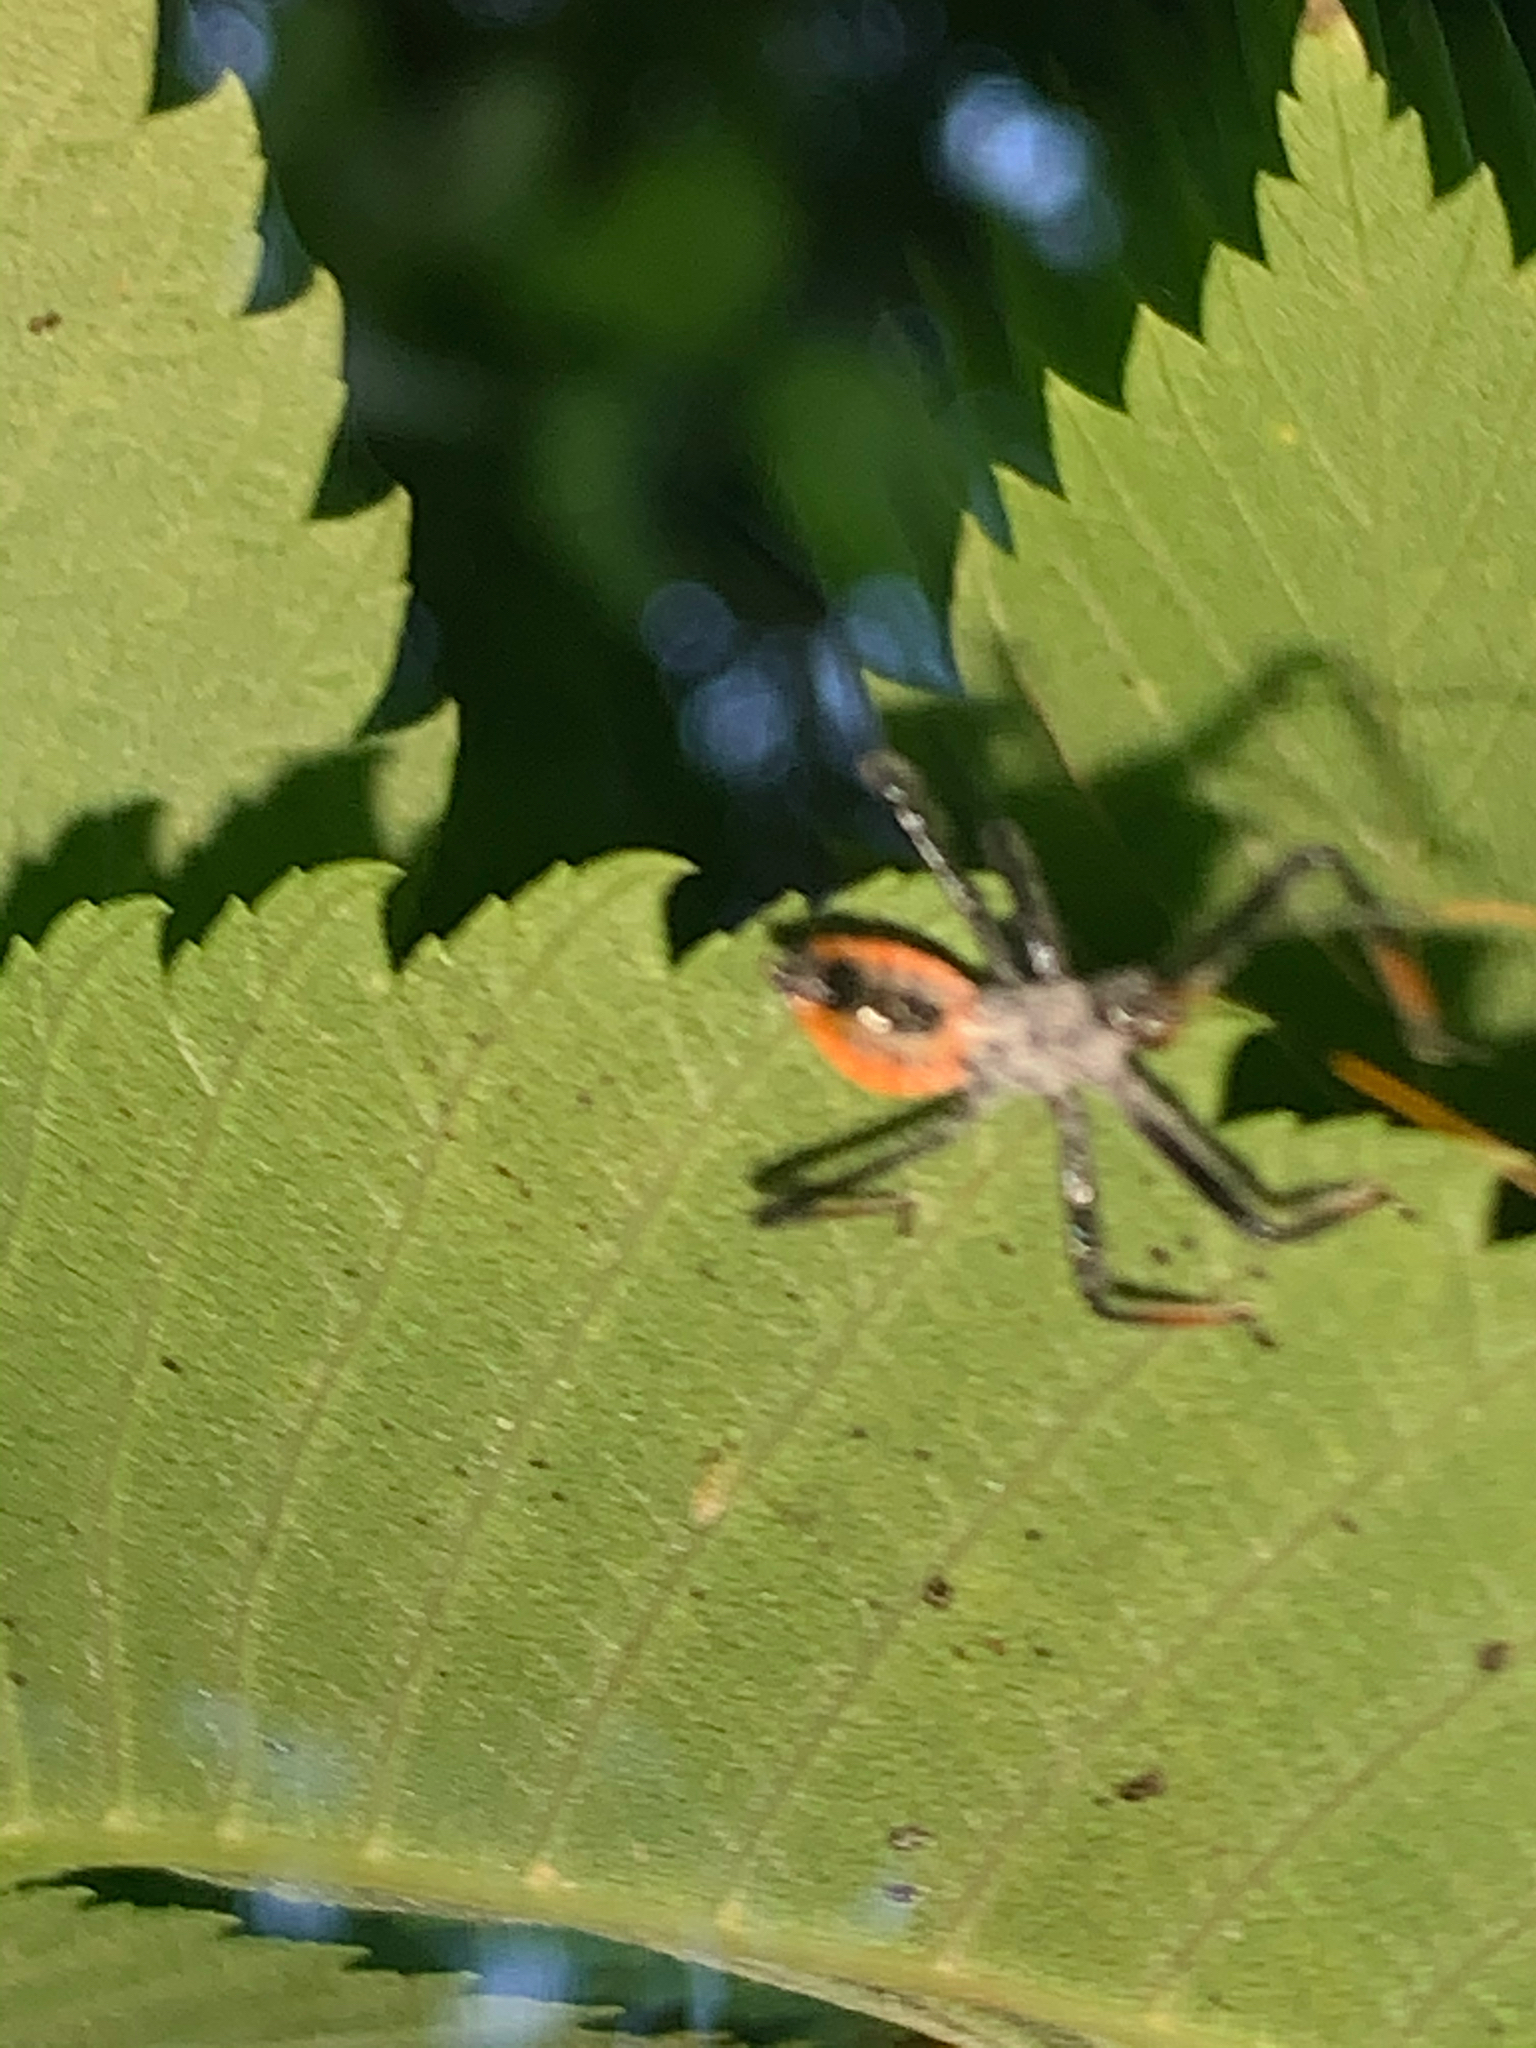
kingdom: Animalia
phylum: Arthropoda
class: Insecta
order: Hemiptera
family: Reduviidae
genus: Arilus
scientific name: Arilus cristatus
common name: North american wheel bug
